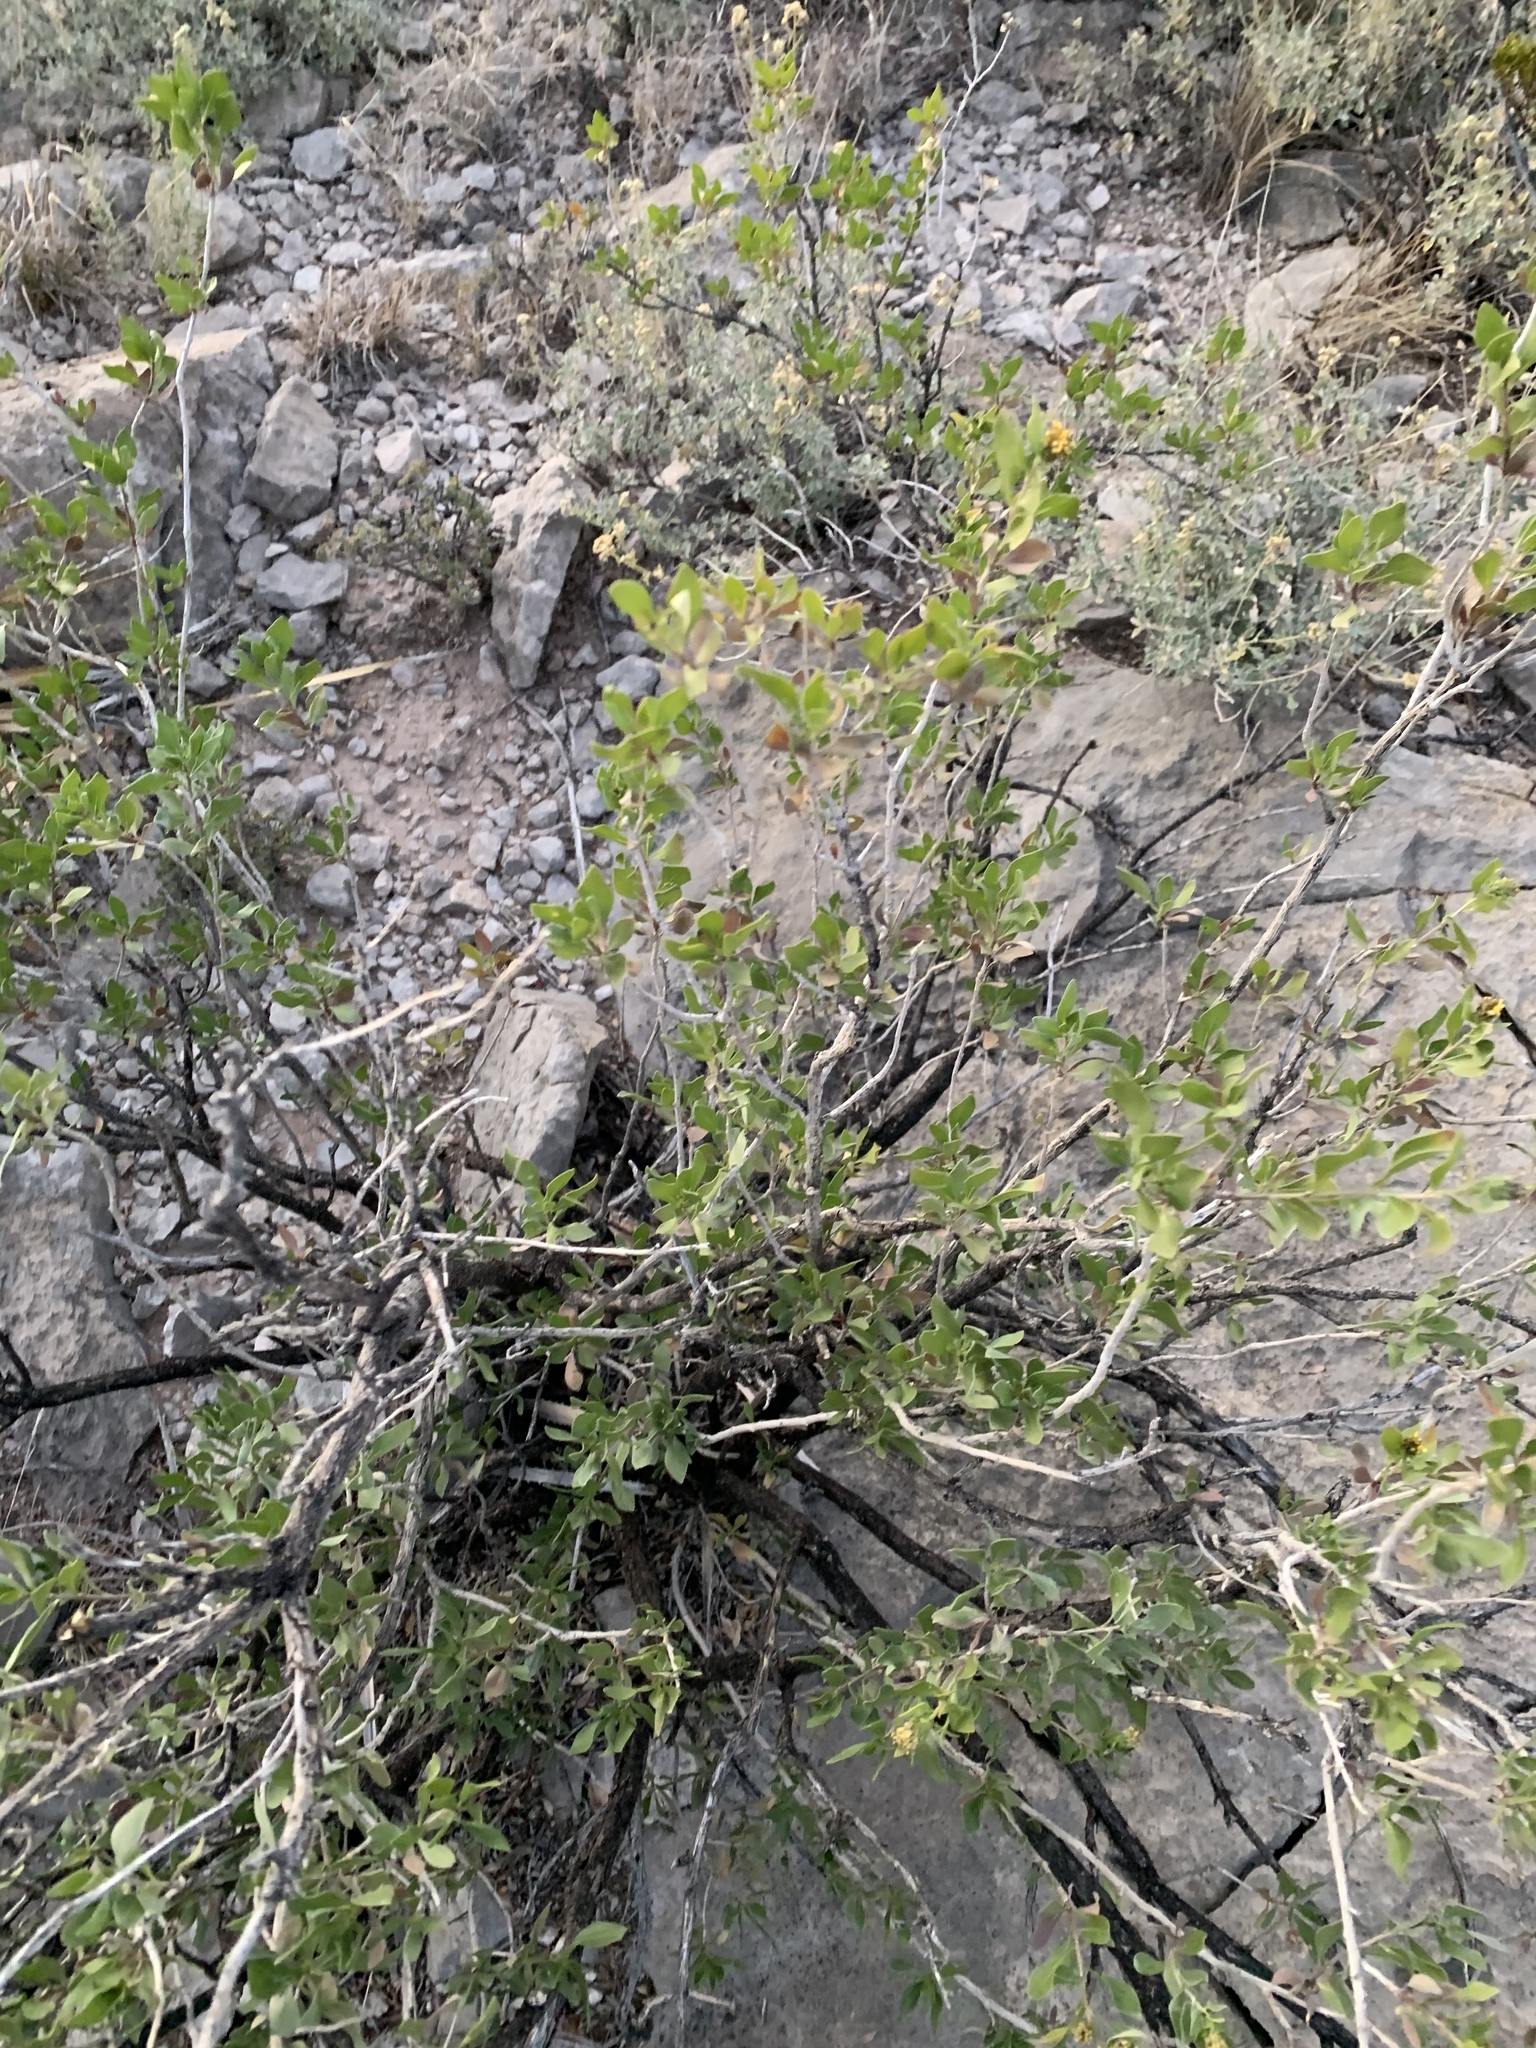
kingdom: Plantae
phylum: Tracheophyta
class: Magnoliopsida
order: Asterales
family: Asteraceae
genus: Flourensia
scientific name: Flourensia cernua
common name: Varnishbush
